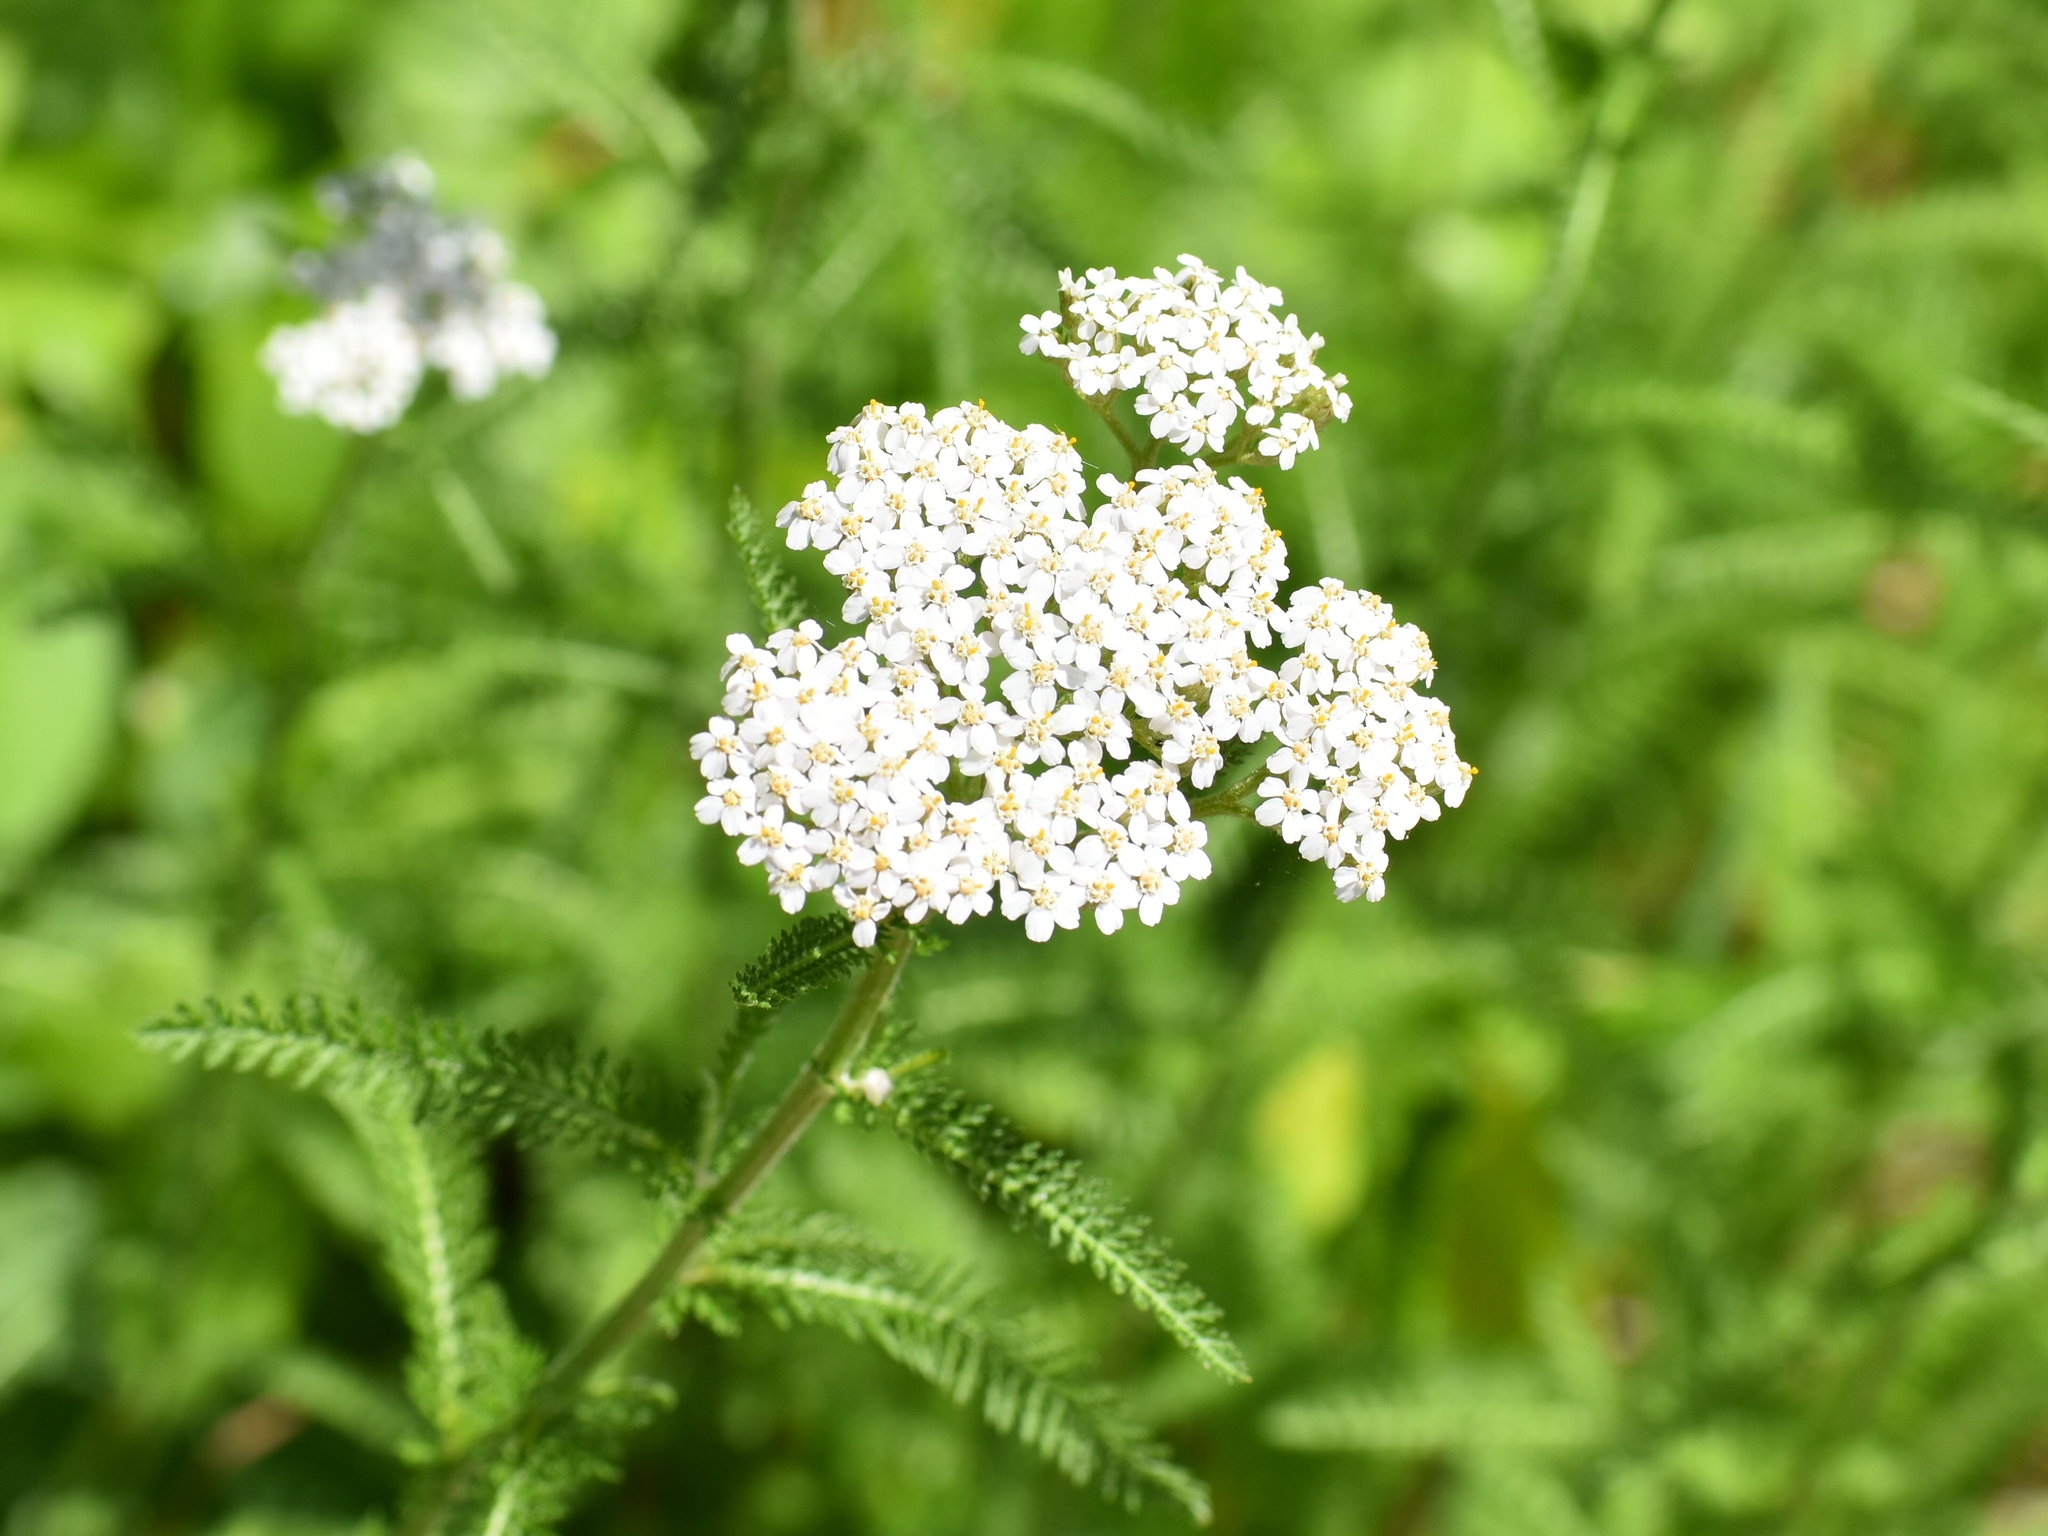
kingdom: Plantae
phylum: Tracheophyta
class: Magnoliopsida
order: Asterales
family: Asteraceae
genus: Achillea
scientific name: Achillea millefolium
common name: Yarrow
